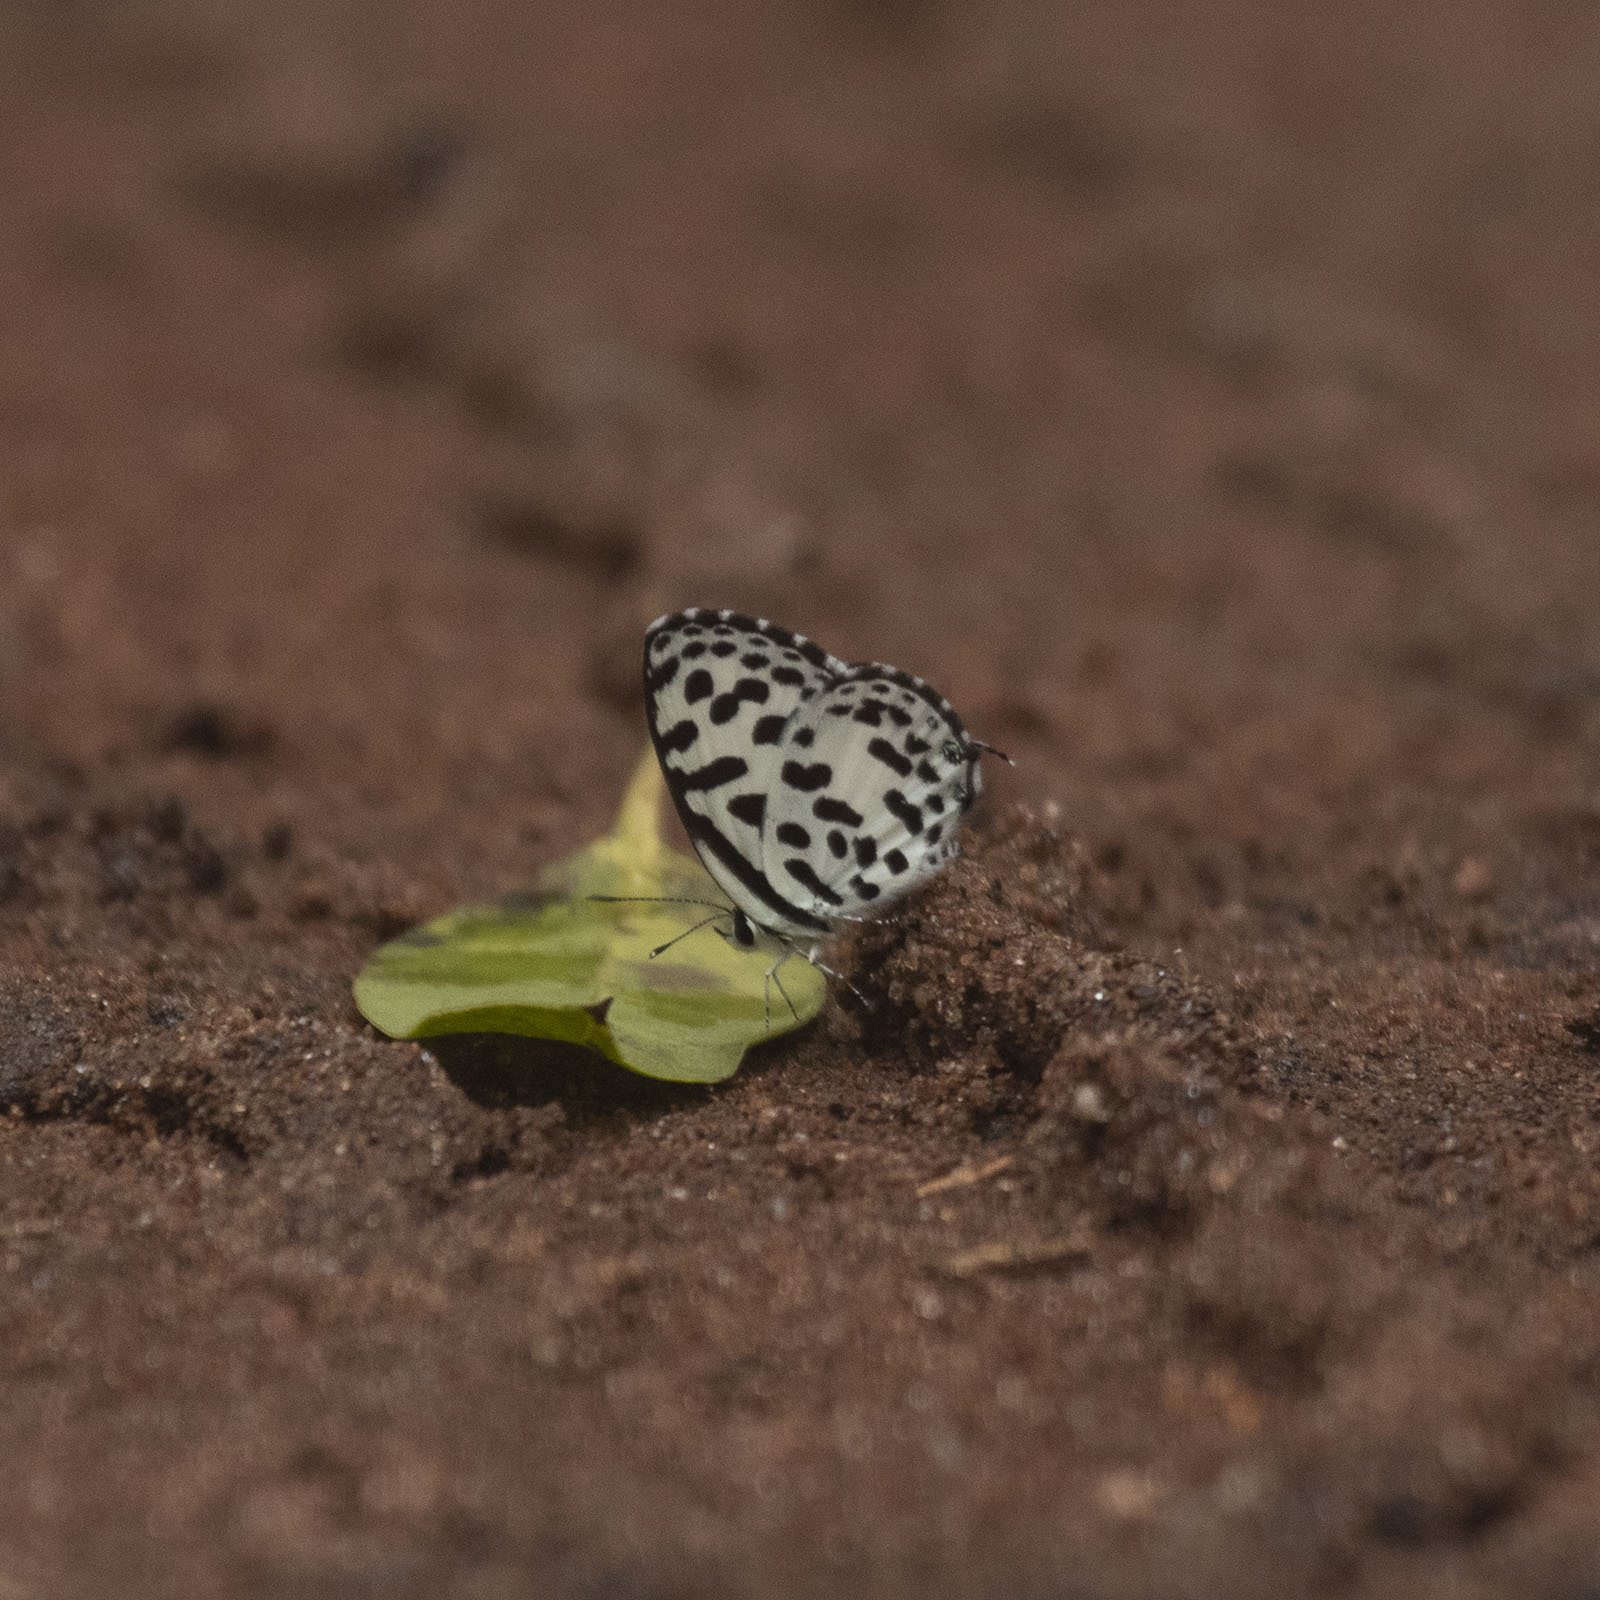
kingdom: Animalia
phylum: Arthropoda
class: Insecta
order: Lepidoptera
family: Lycaenidae
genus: Castalius
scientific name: Castalius rosimon
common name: Common pierrot
